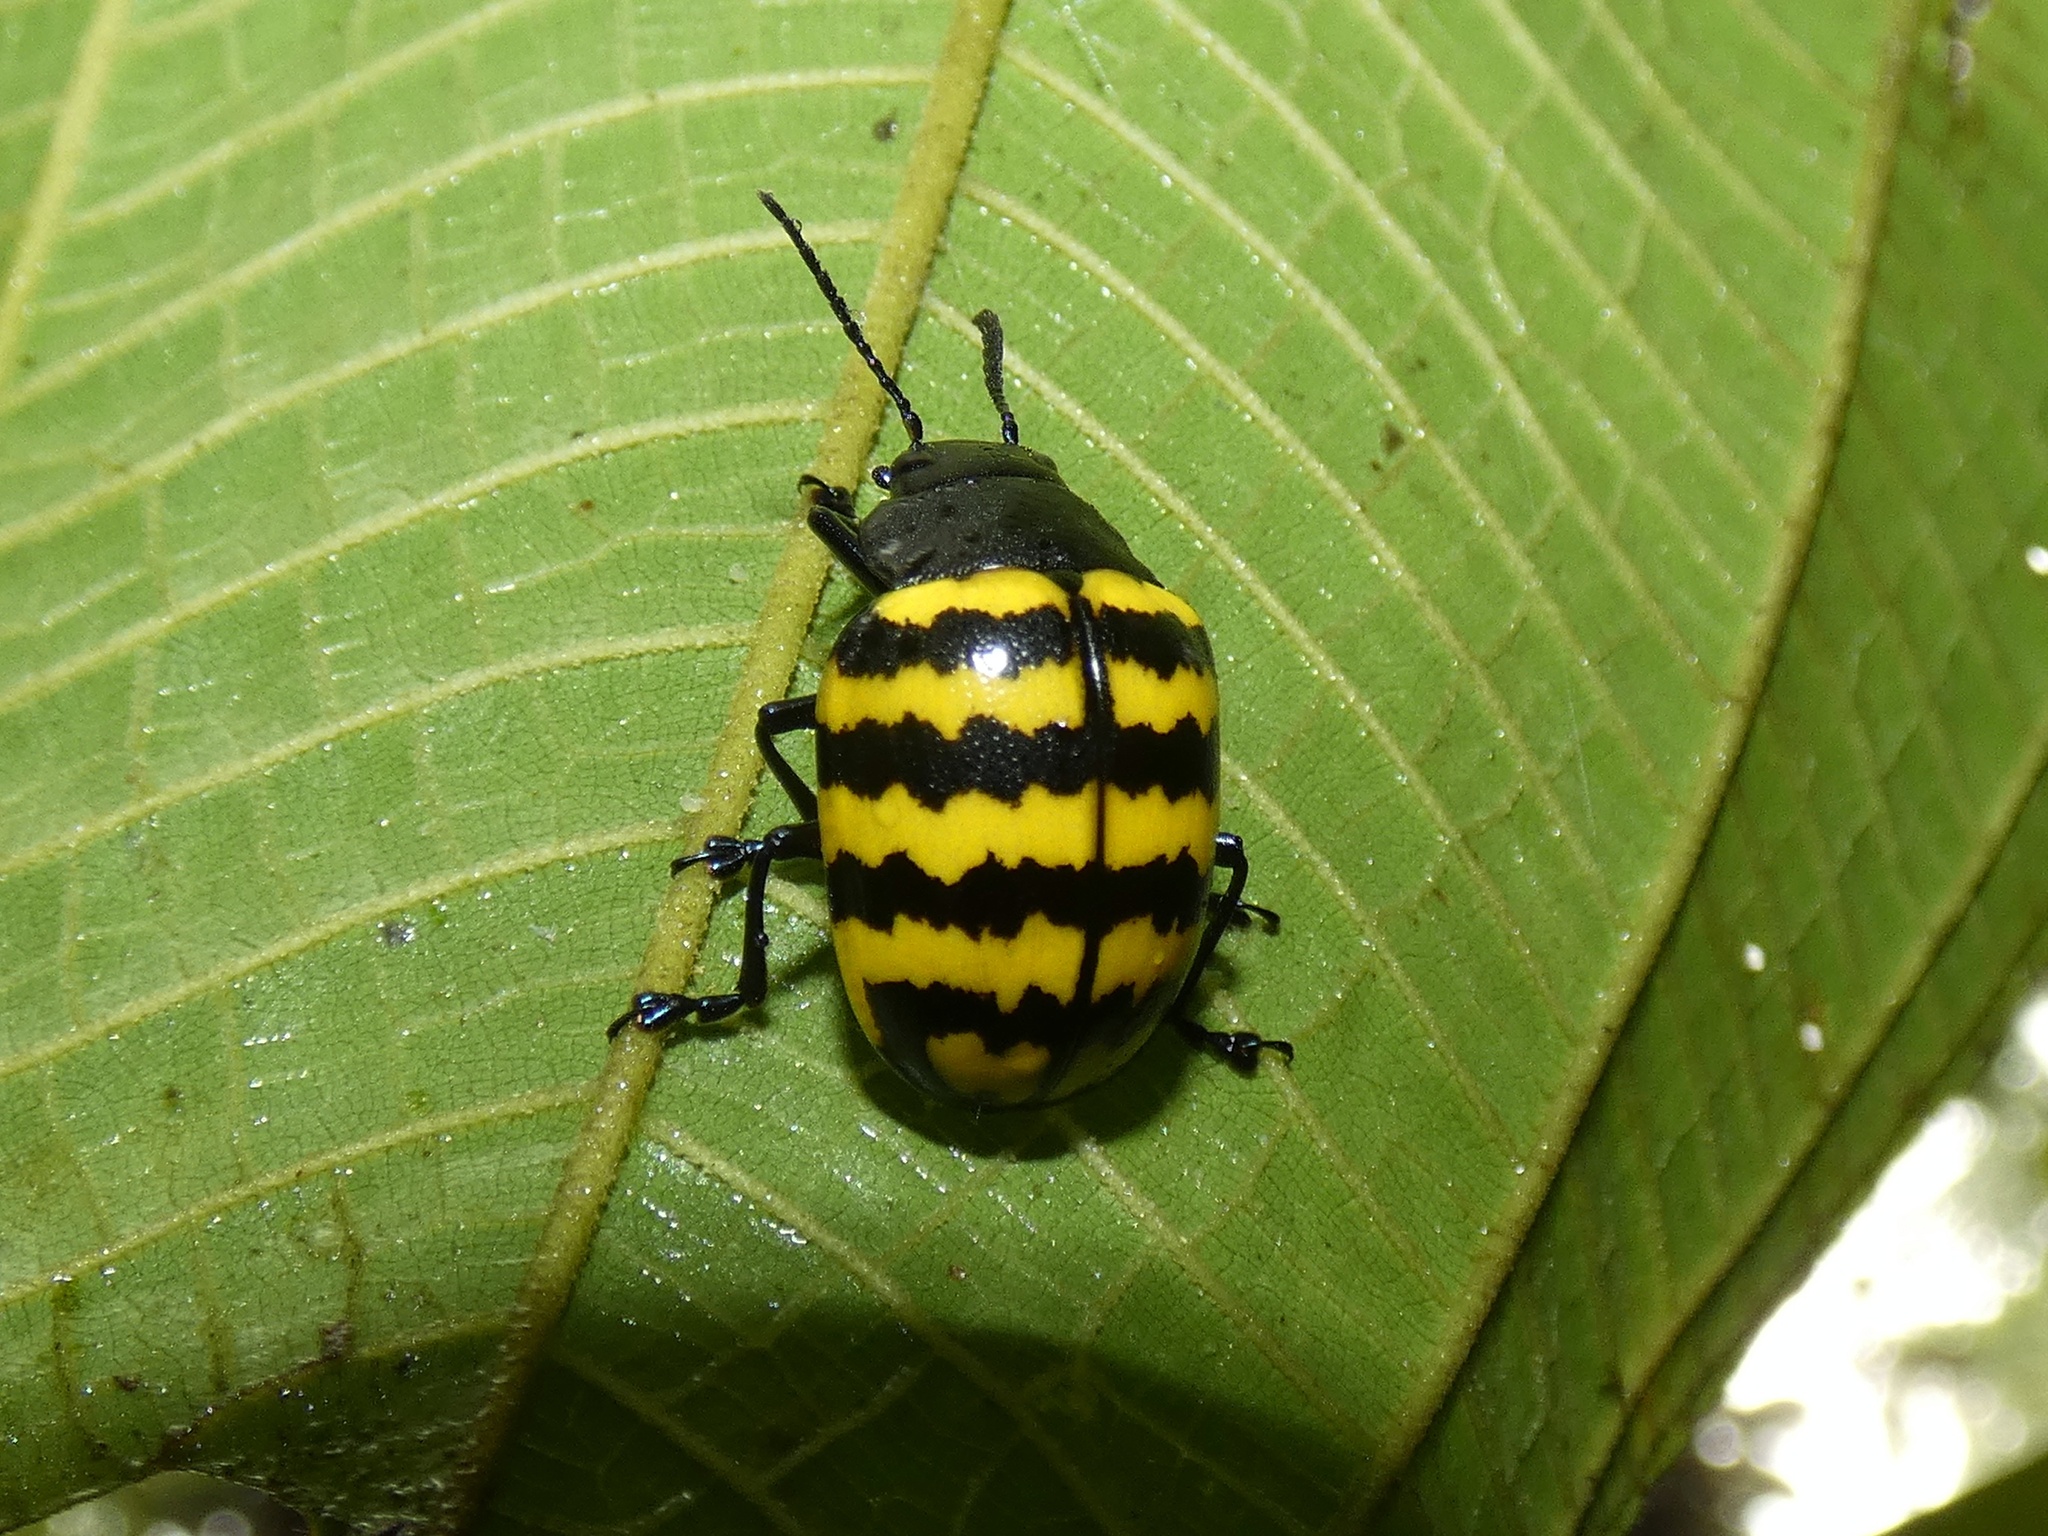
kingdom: Animalia
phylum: Arthropoda
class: Insecta
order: Coleoptera
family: Chrysomelidae
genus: Platyphora
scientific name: Platyphora
